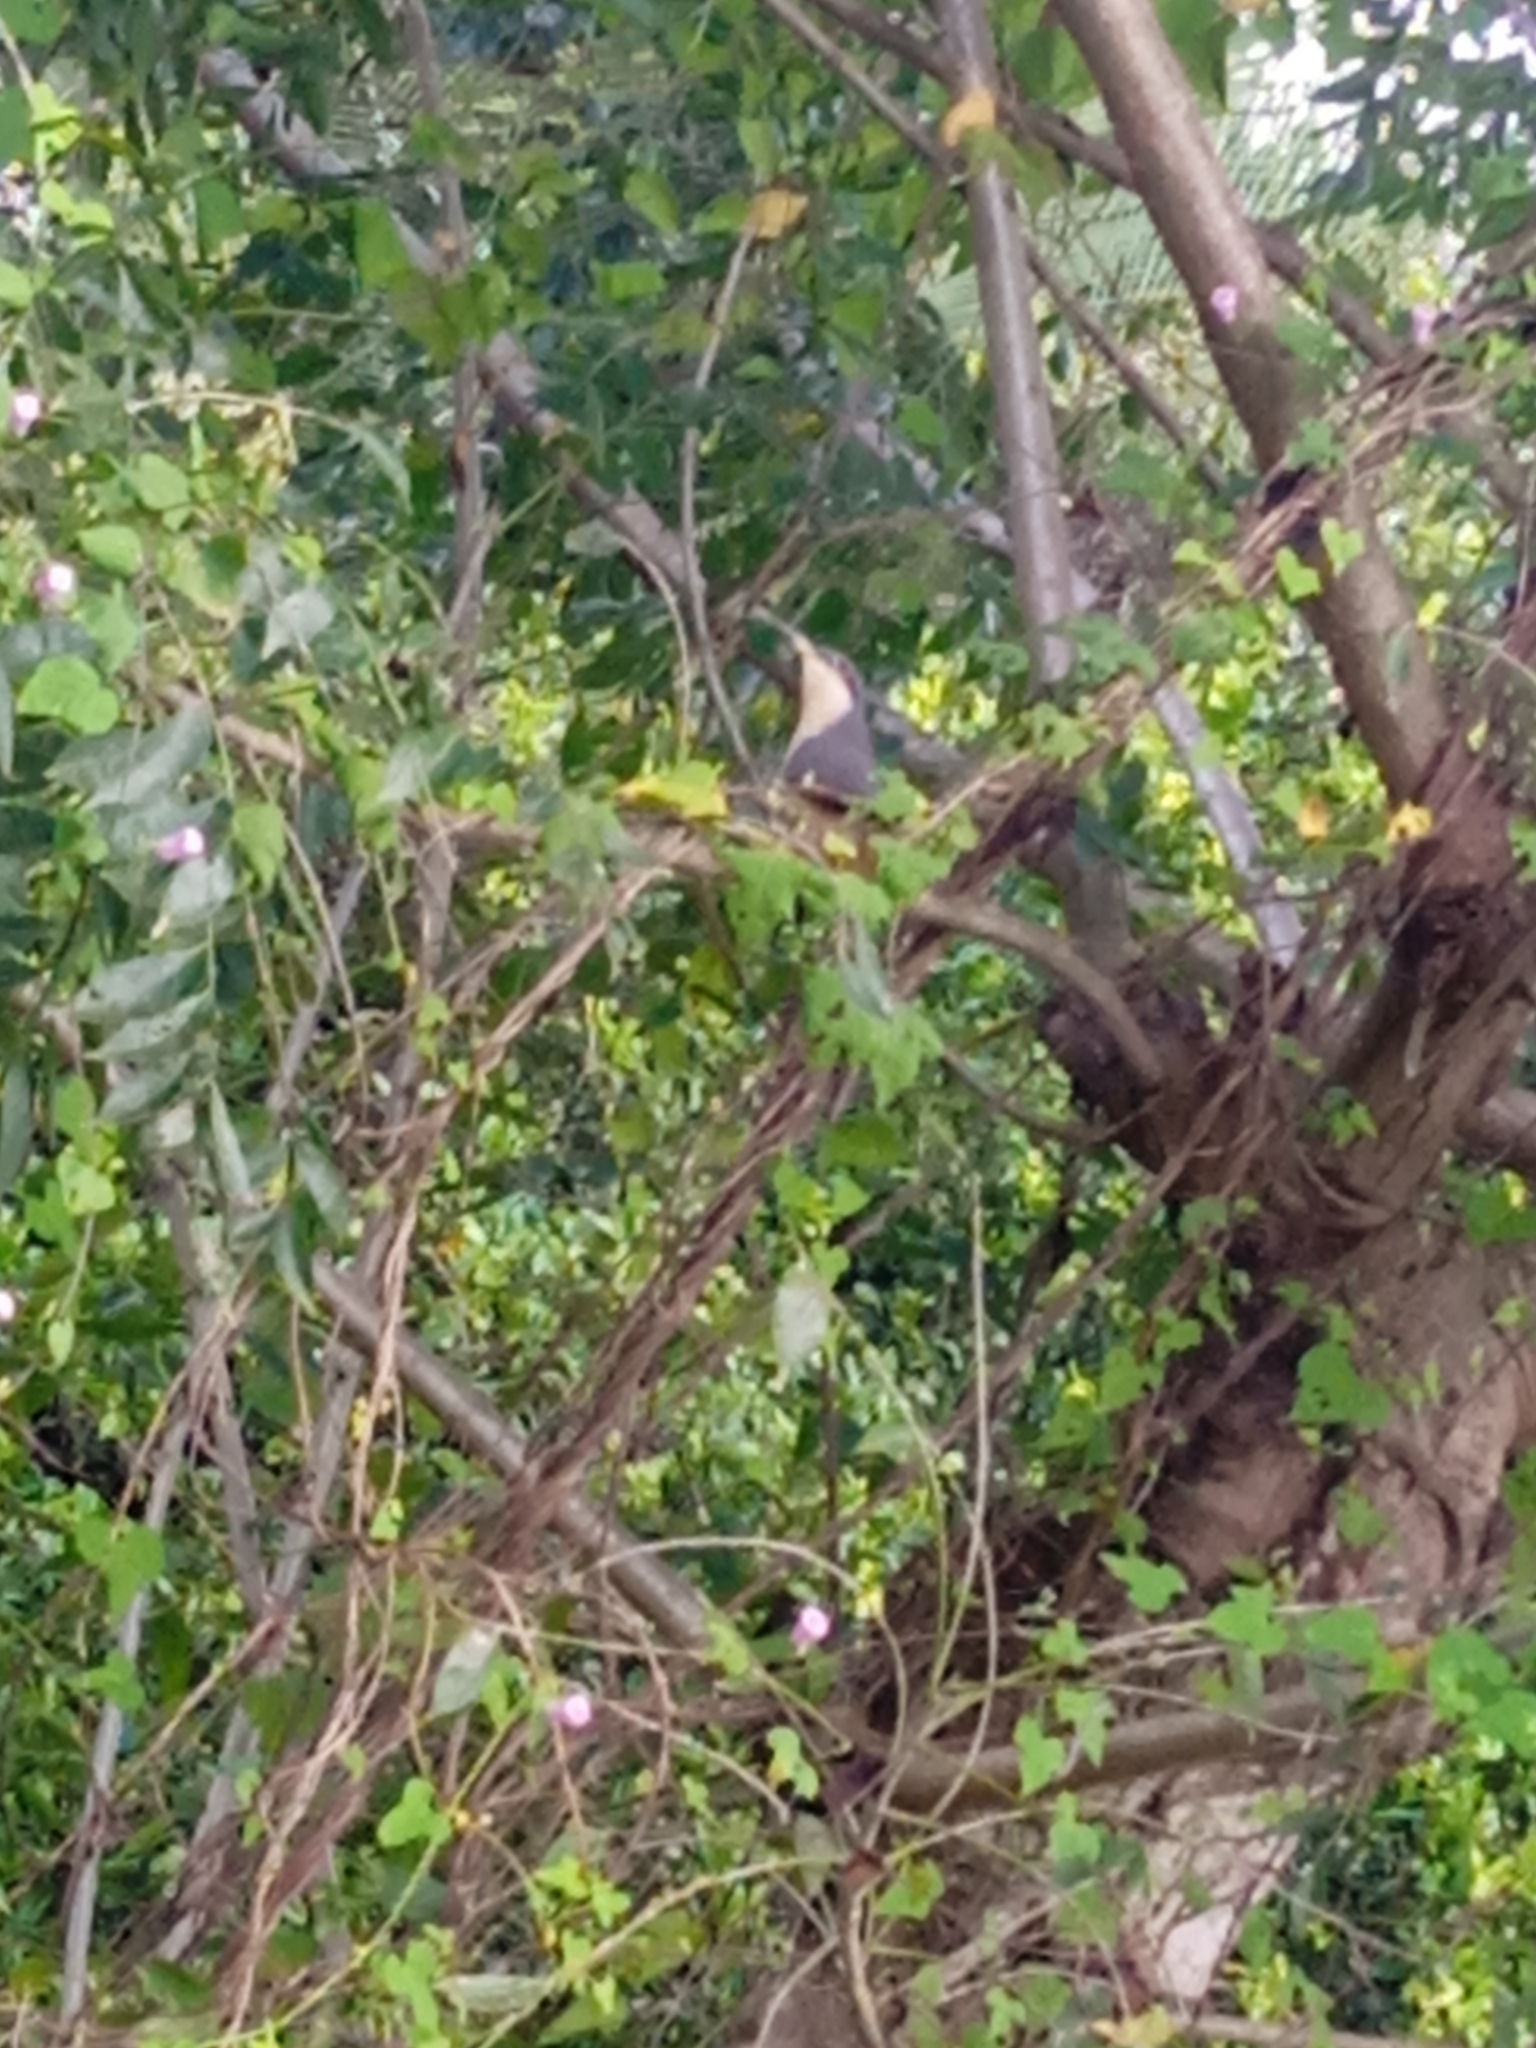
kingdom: Animalia
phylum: Chordata
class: Aves
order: Cuculiformes
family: Cuculidae
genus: Coccyzus
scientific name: Coccyzus minor
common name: Mangrove cuckoo
